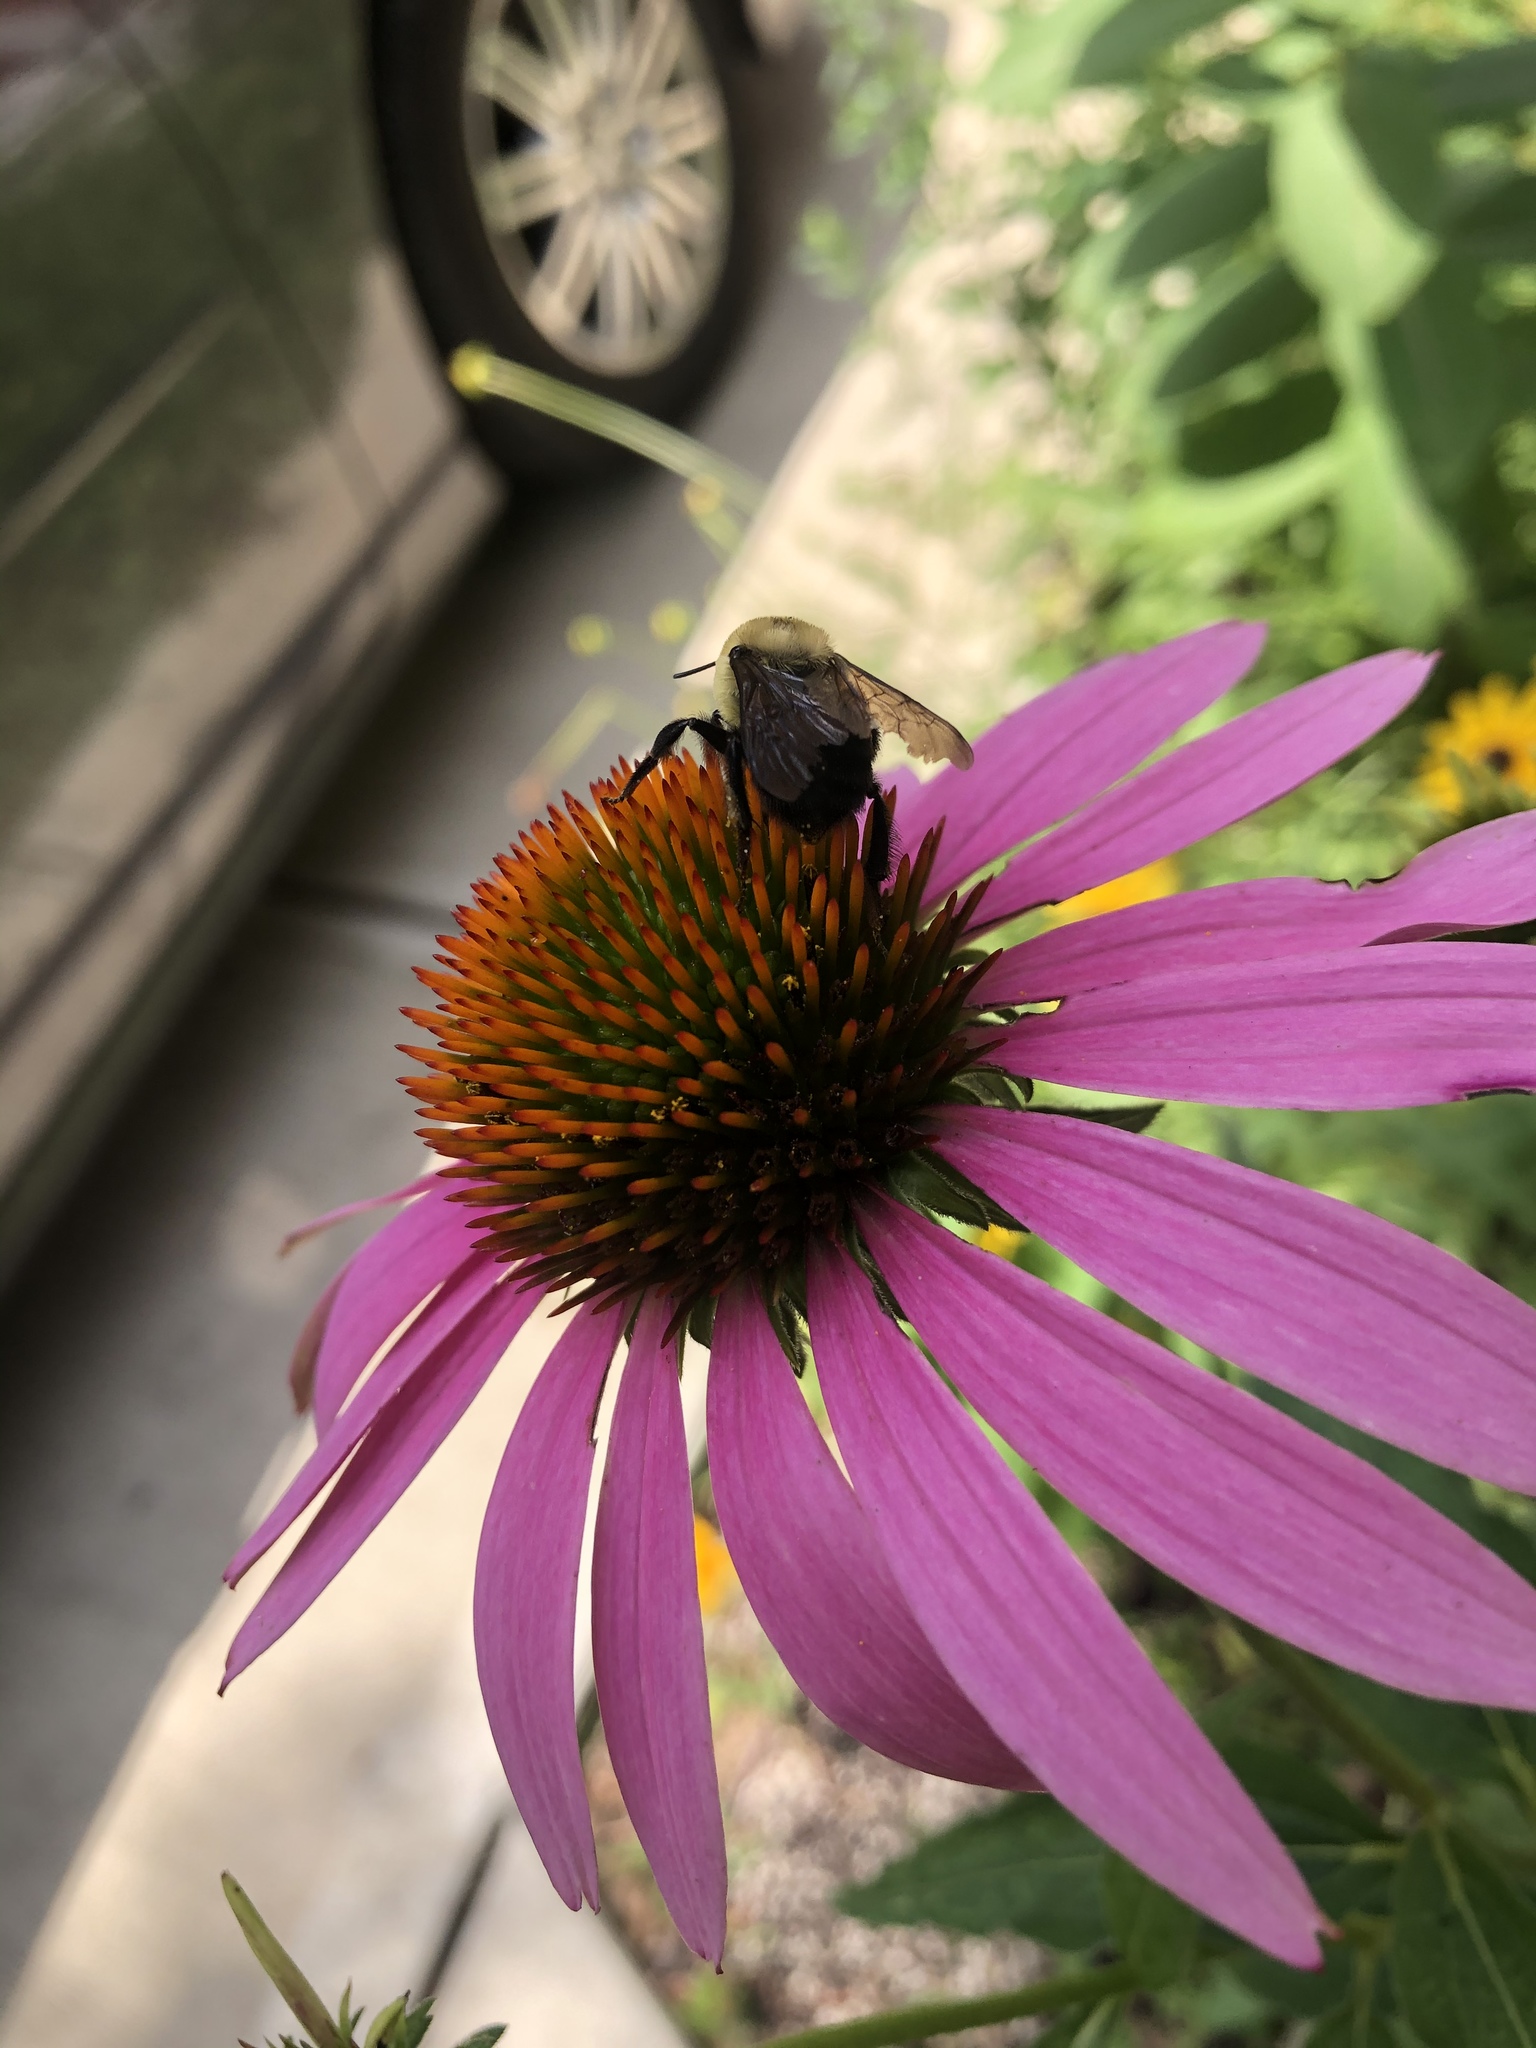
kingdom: Animalia
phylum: Arthropoda
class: Insecta
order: Hymenoptera
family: Apidae
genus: Bombus
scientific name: Bombus griseocollis
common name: Brown-belted bumble bee
